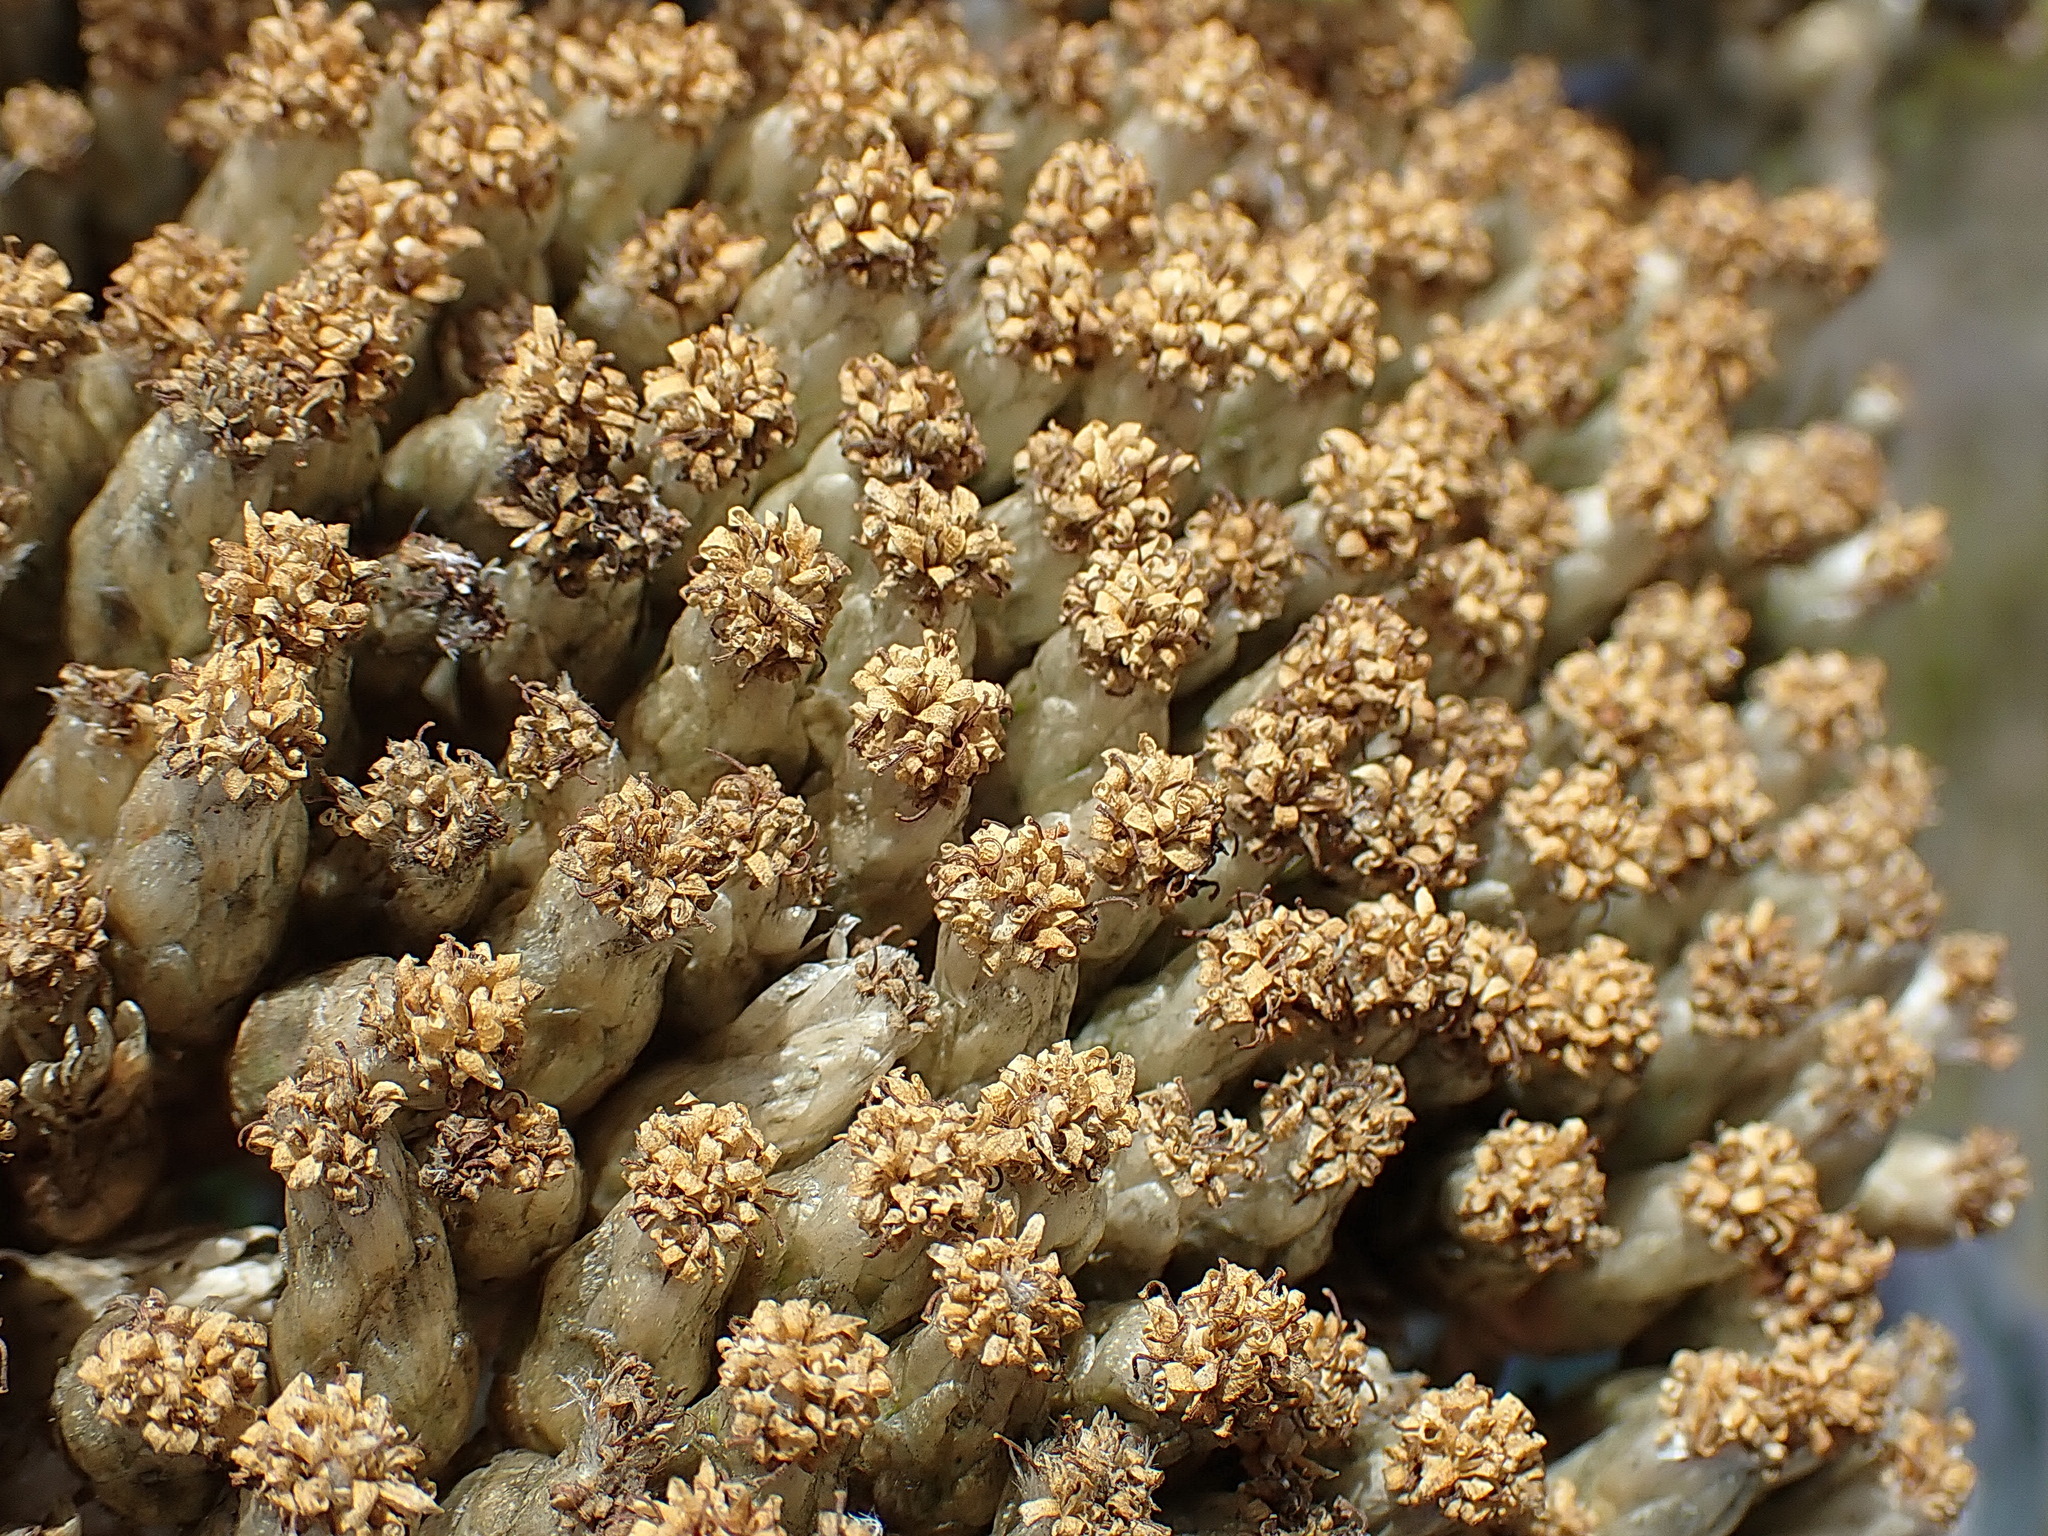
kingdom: Plantae
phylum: Tracheophyta
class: Magnoliopsida
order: Asterales
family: Asteraceae
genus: Syncarpha
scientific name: Syncarpha milleflora
